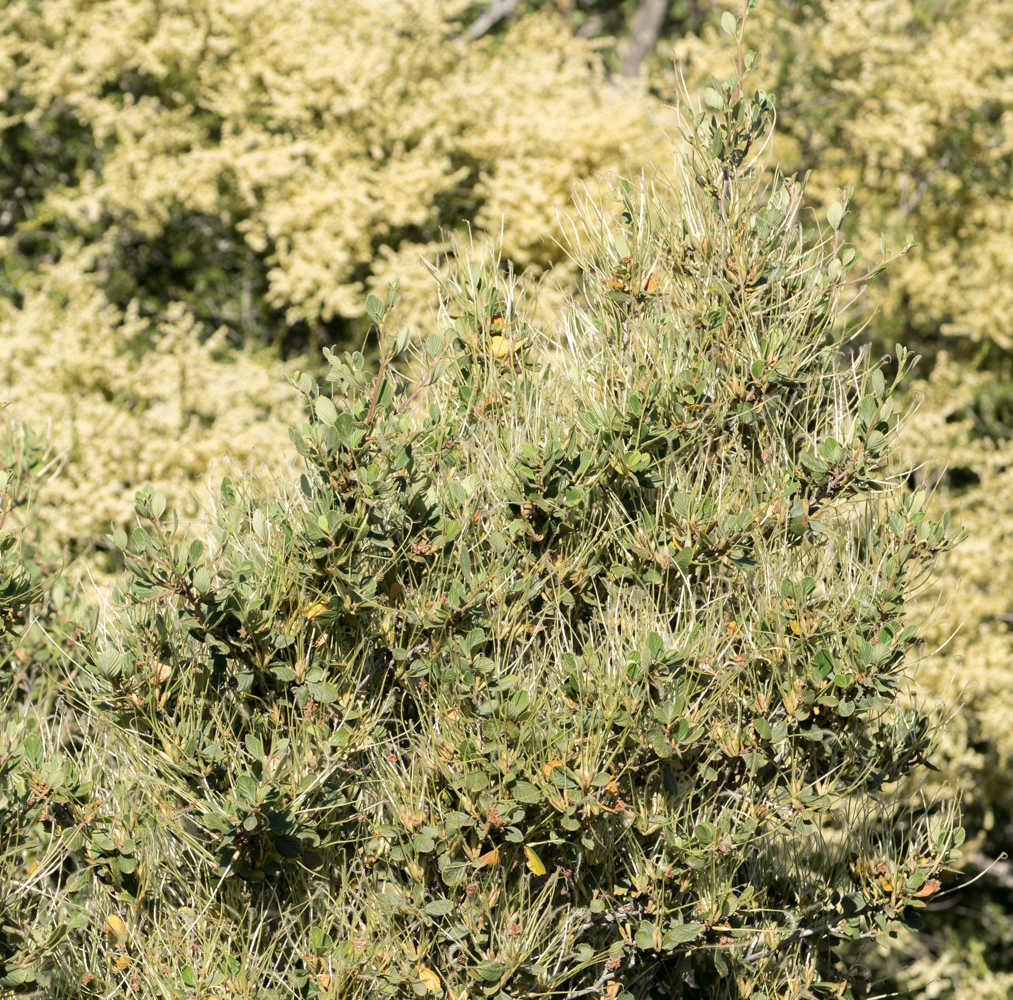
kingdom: Plantae
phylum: Tracheophyta
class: Magnoliopsida
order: Rosales
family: Rosaceae
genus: Cercocarpus
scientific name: Cercocarpus betuloides
